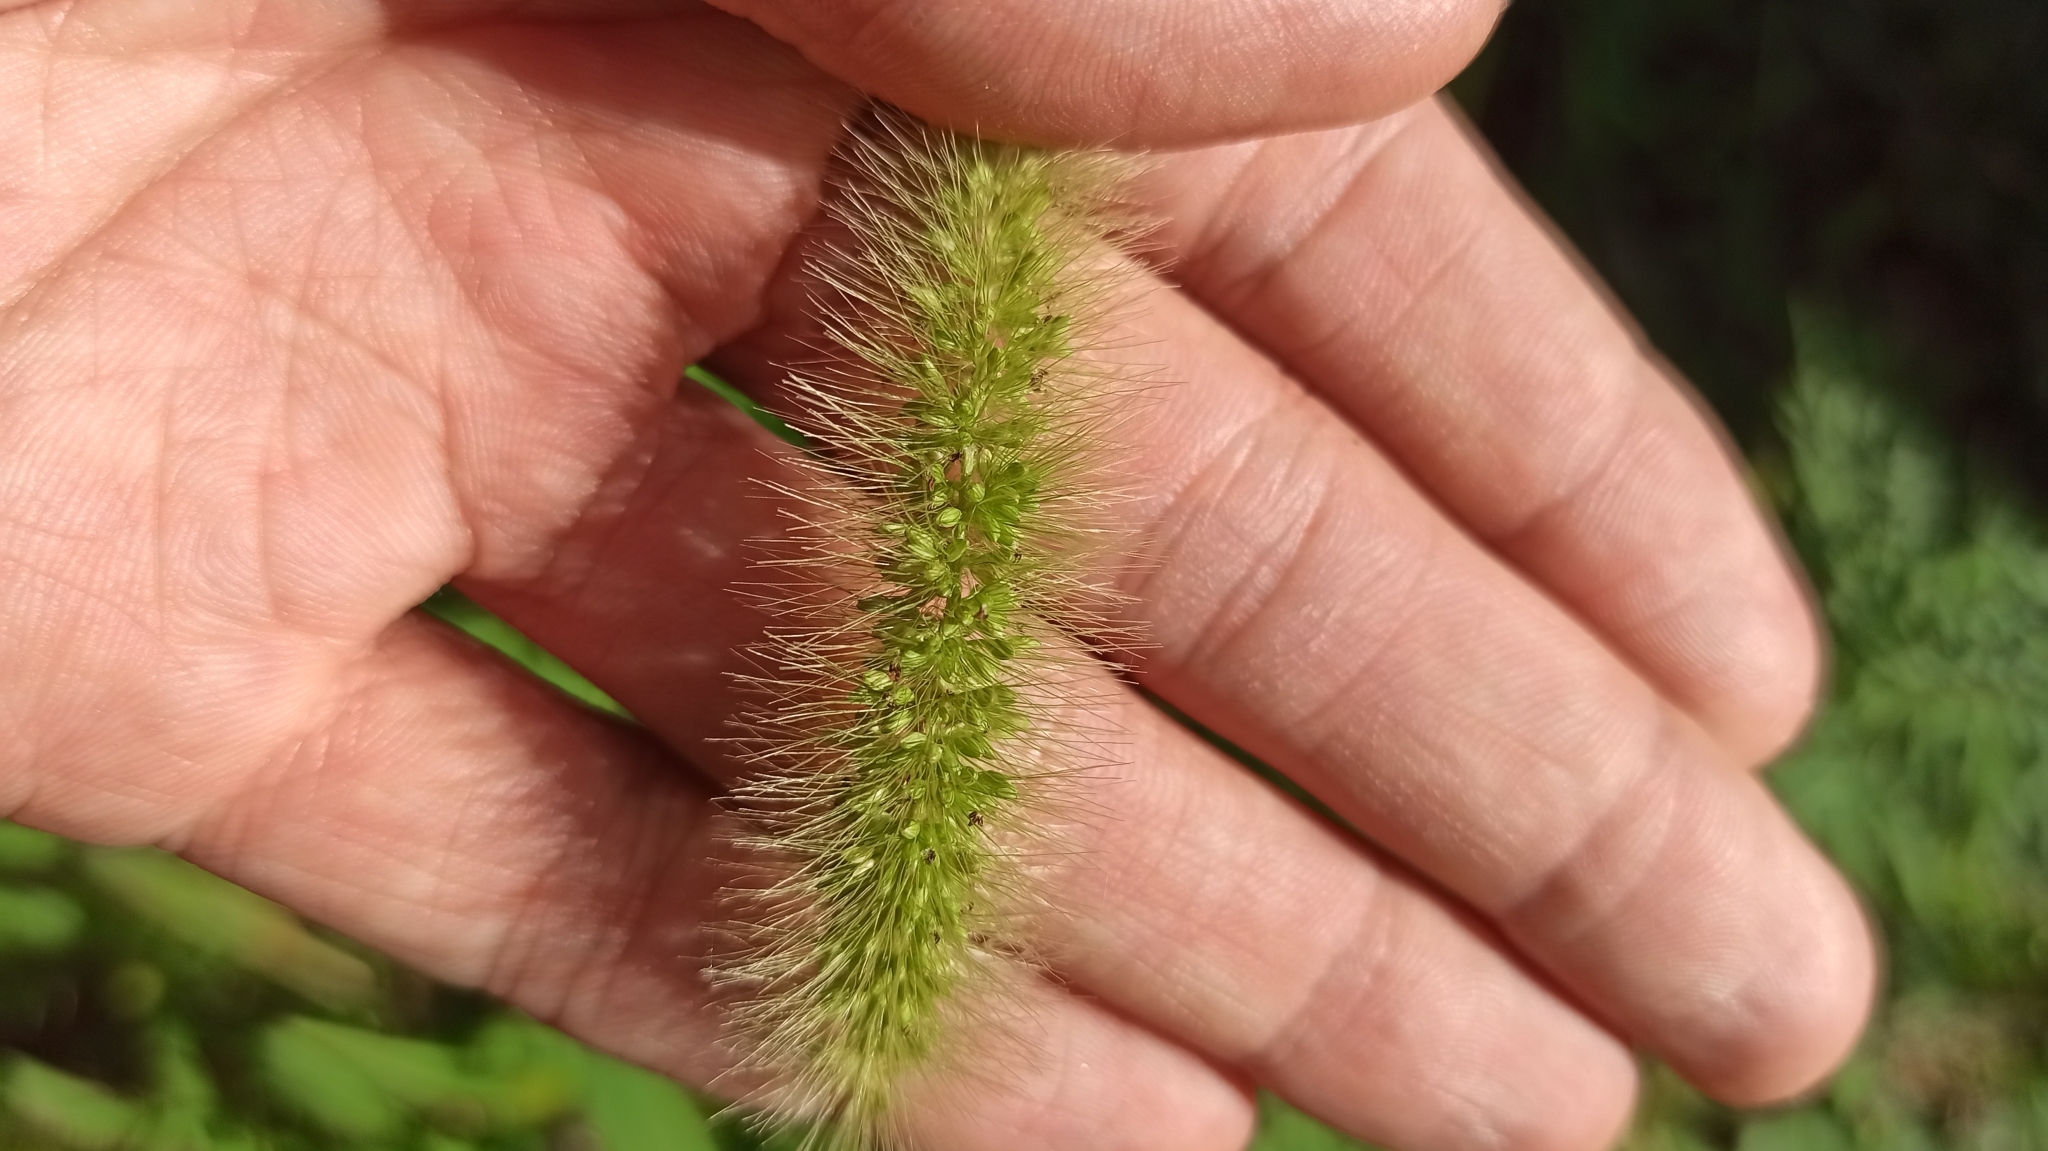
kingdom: Plantae
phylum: Tracheophyta
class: Liliopsida
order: Poales
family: Poaceae
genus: Setaria
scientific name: Setaria viridis
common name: Green bristlegrass
